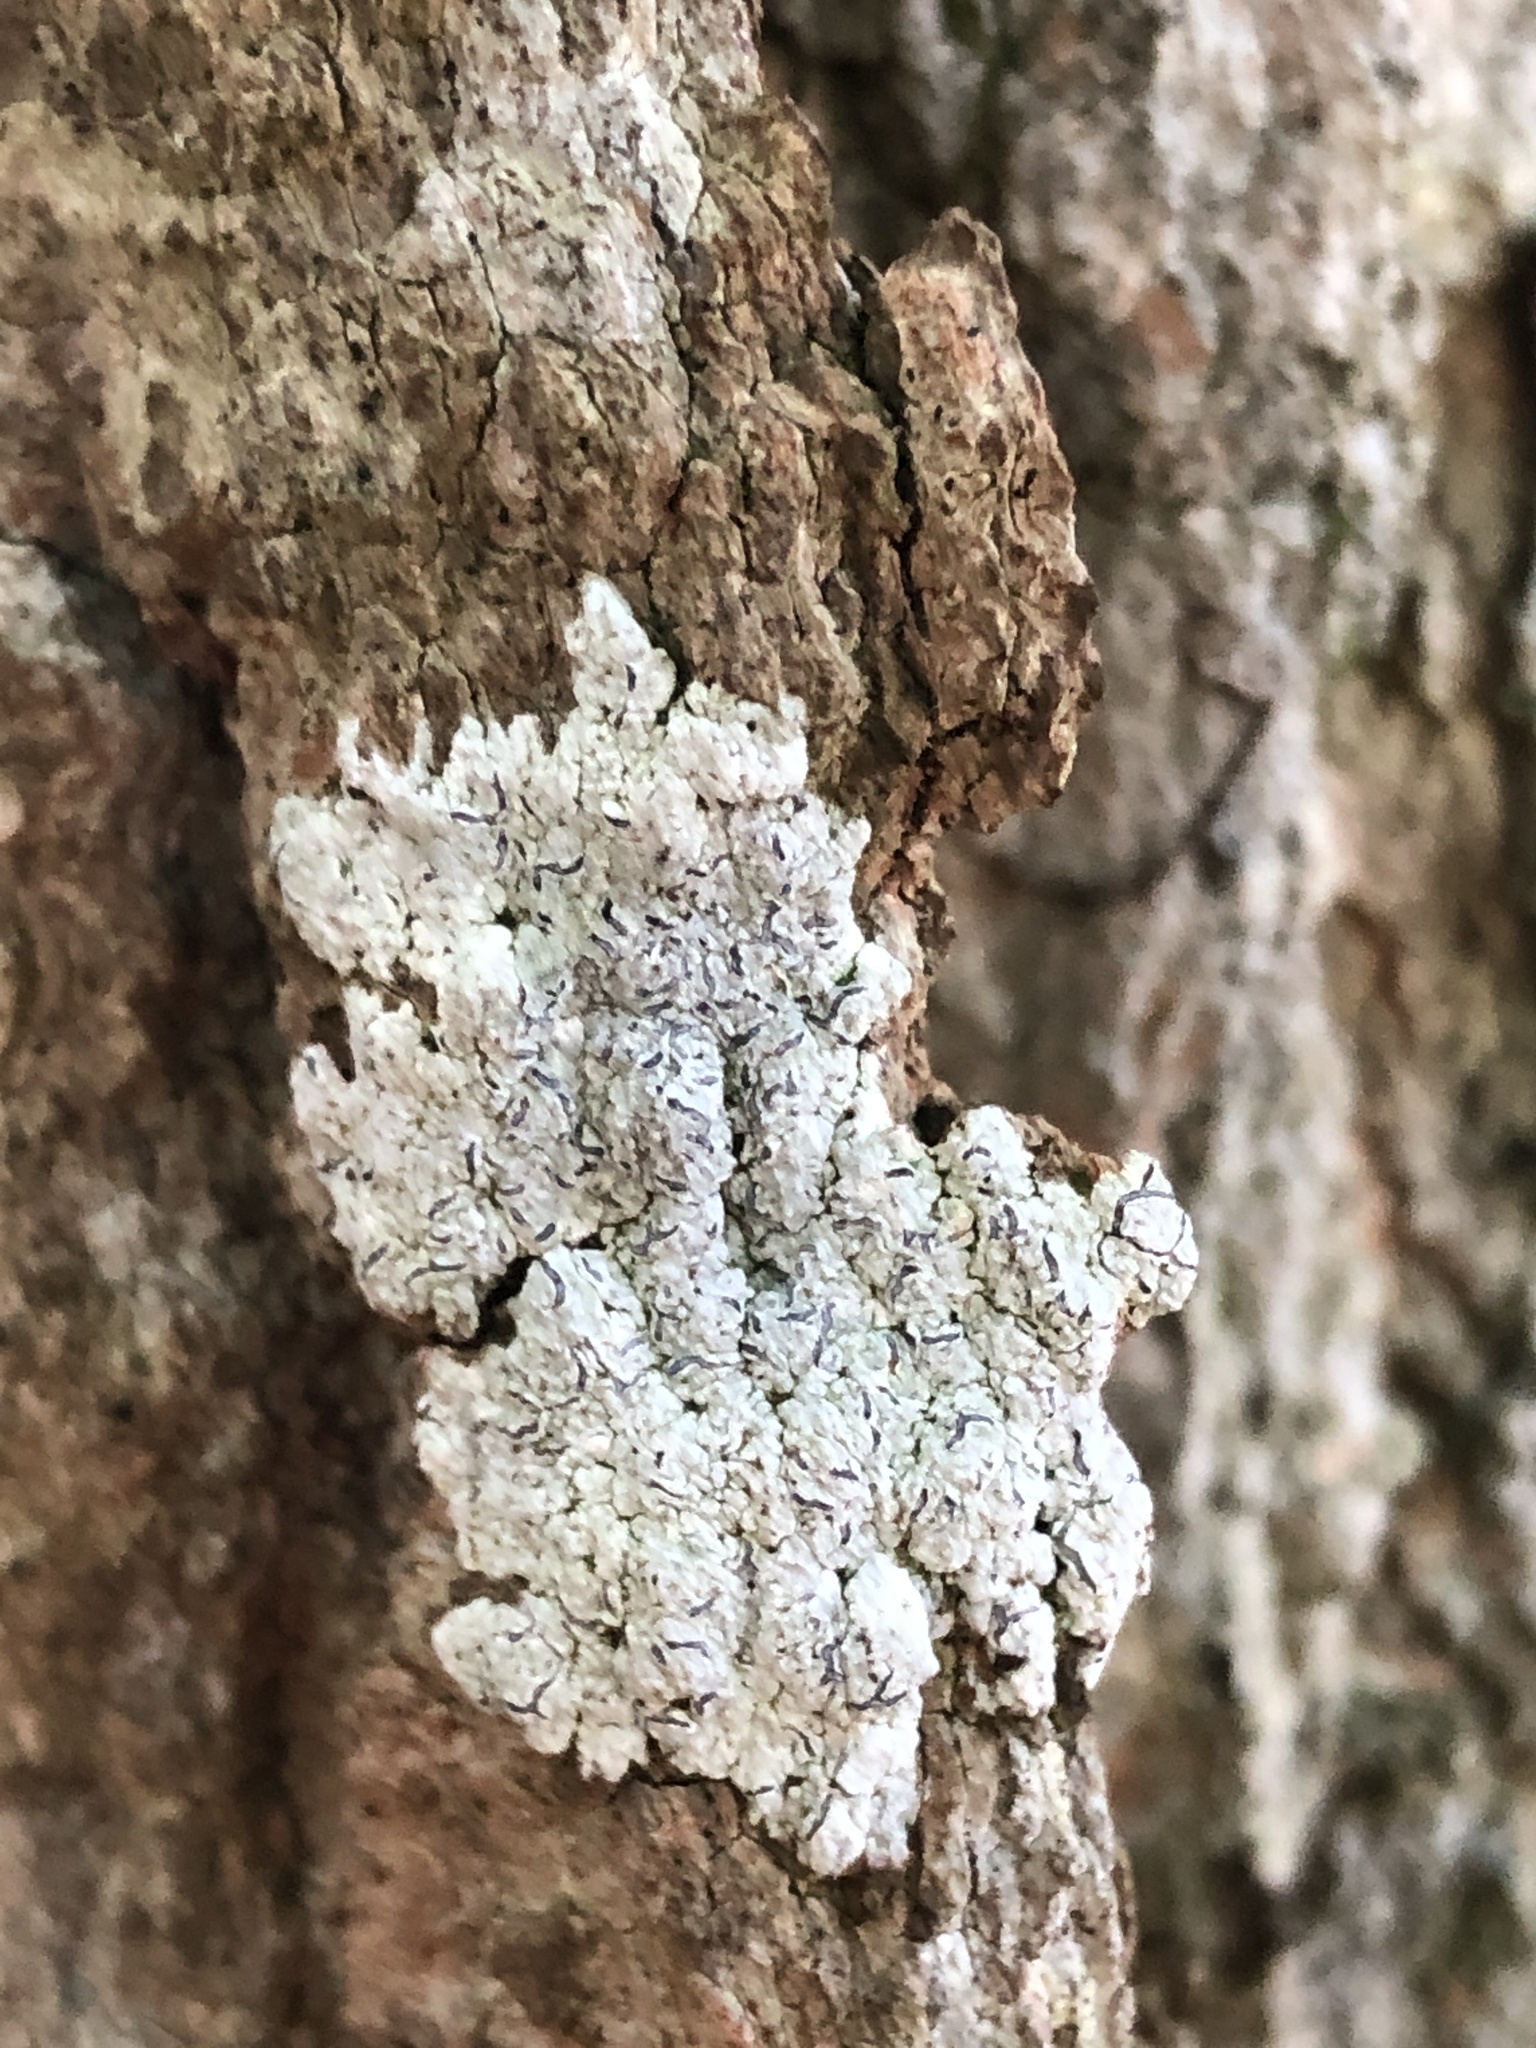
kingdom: Fungi
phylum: Ascomycota
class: Lecanoromycetes
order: Ostropales
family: Graphidaceae
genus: Graphis
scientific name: Graphis scripta
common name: Script lichen
